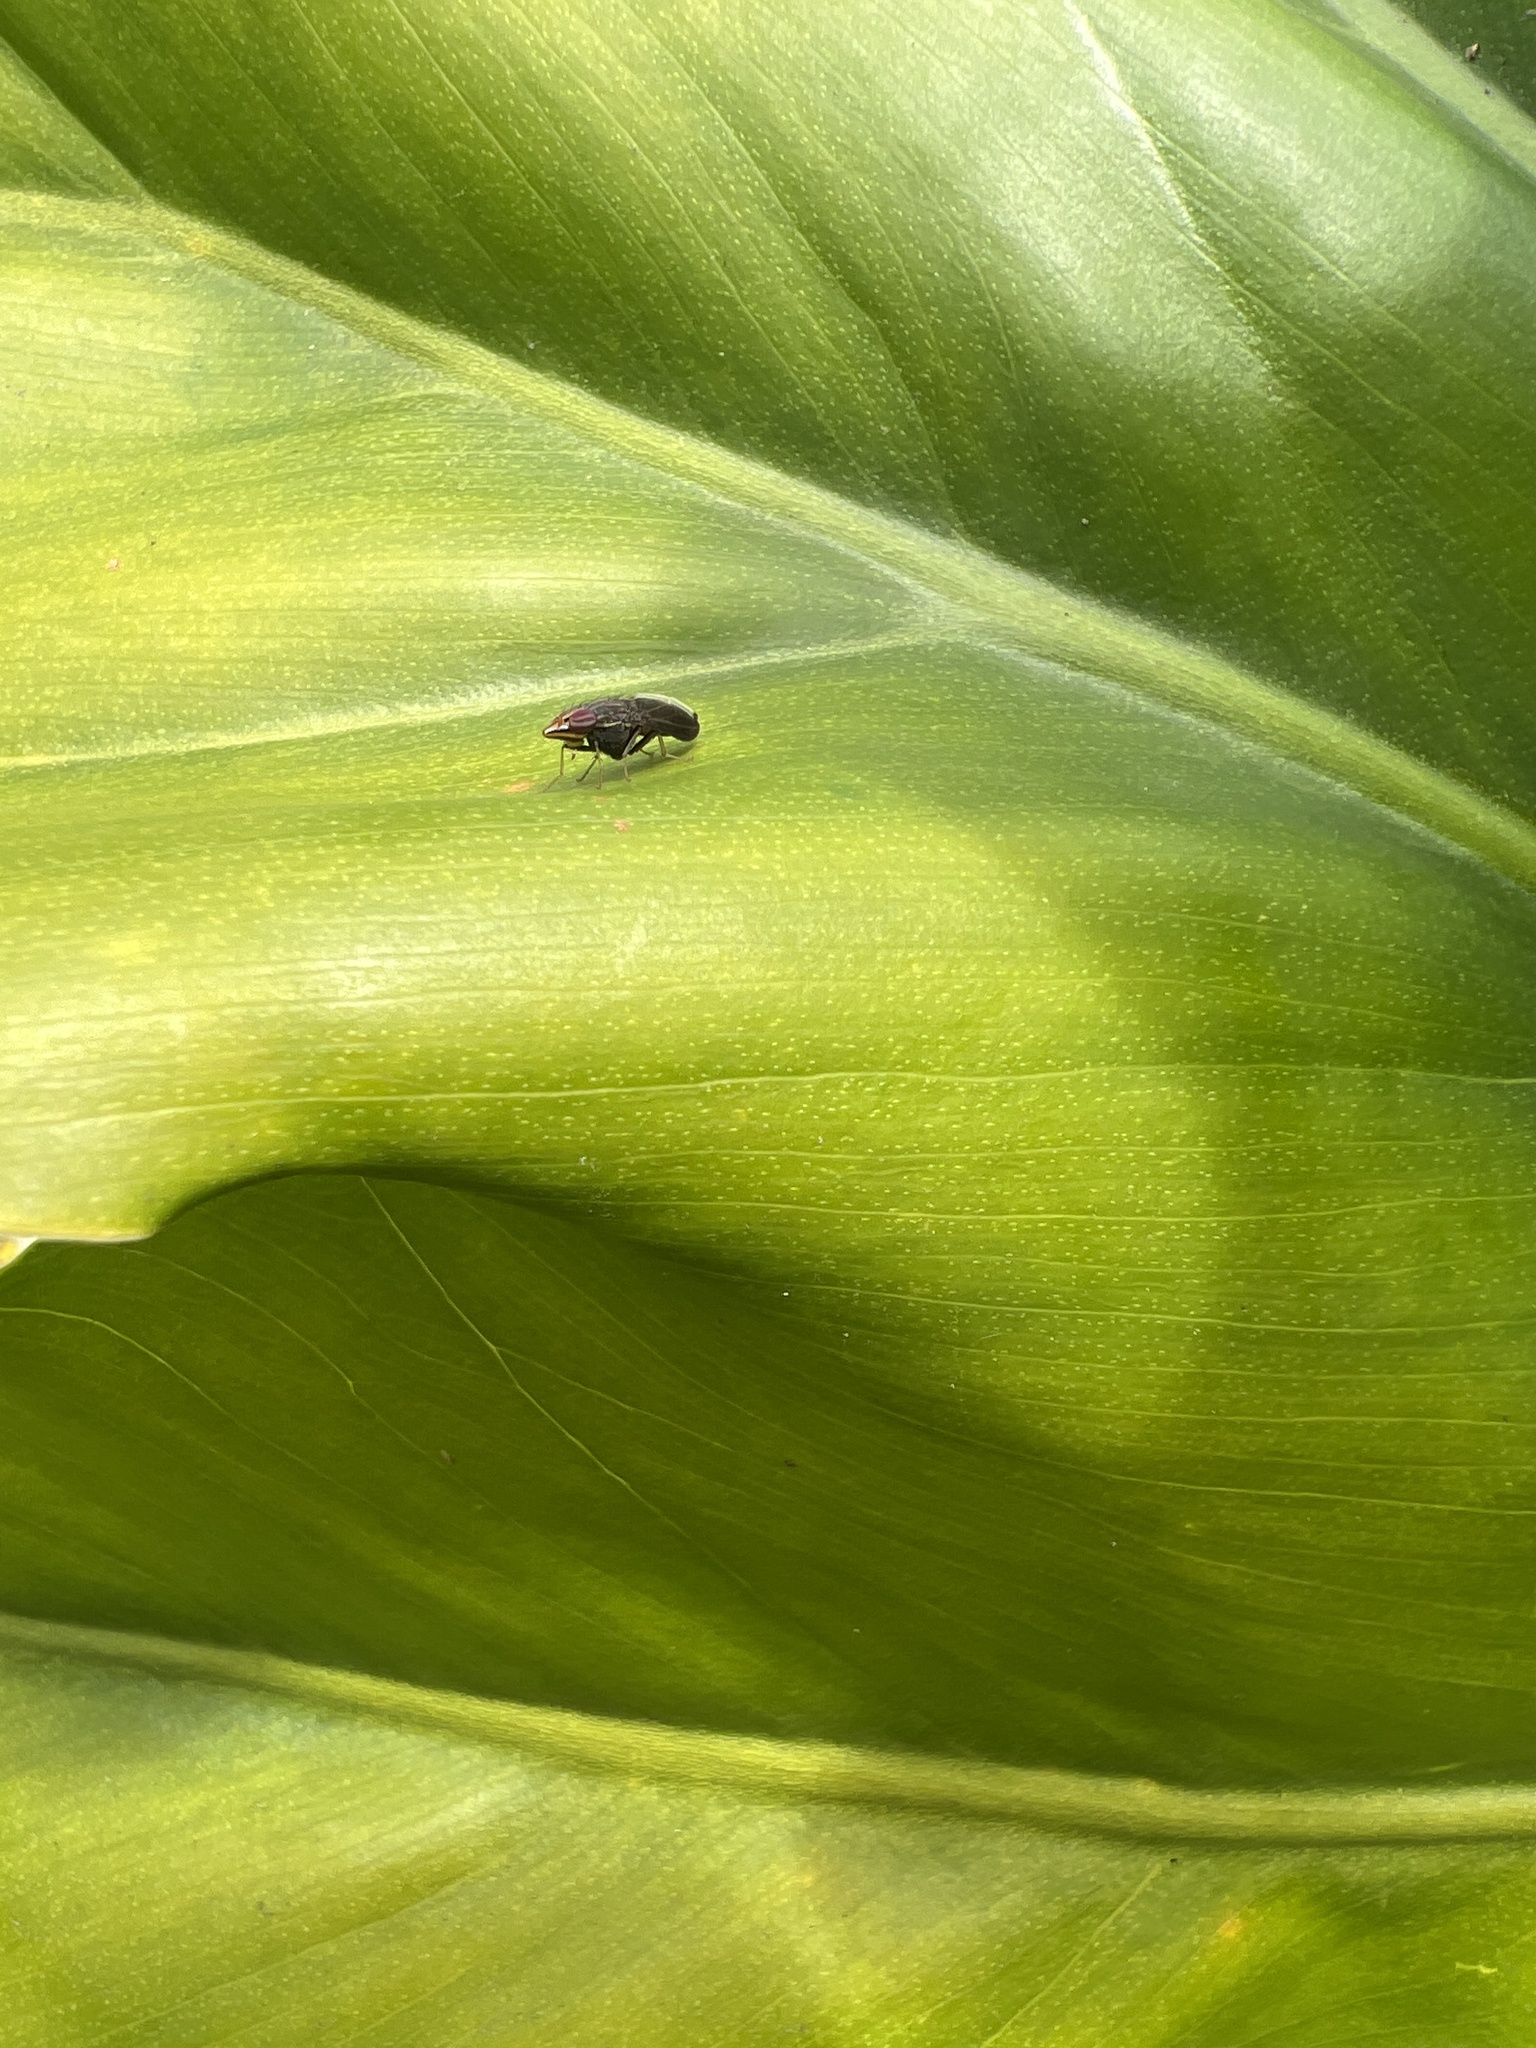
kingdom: Animalia
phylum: Arthropoda
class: Insecta
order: Diptera
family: Lauxaniidae
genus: Cephaloconus
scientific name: Cephaloconus tenebrosus
